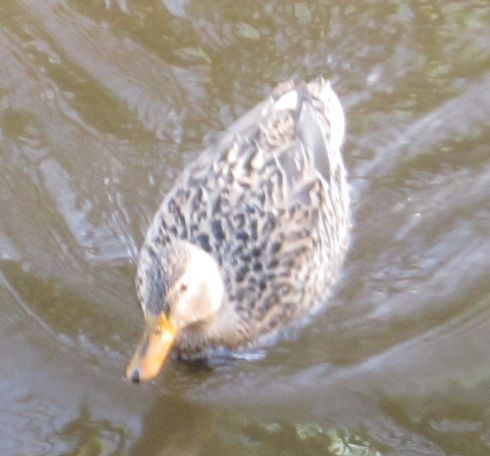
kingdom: Animalia
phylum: Chordata
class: Aves
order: Anseriformes
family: Anatidae
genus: Anas
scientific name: Anas platyrhynchos
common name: Mallard
